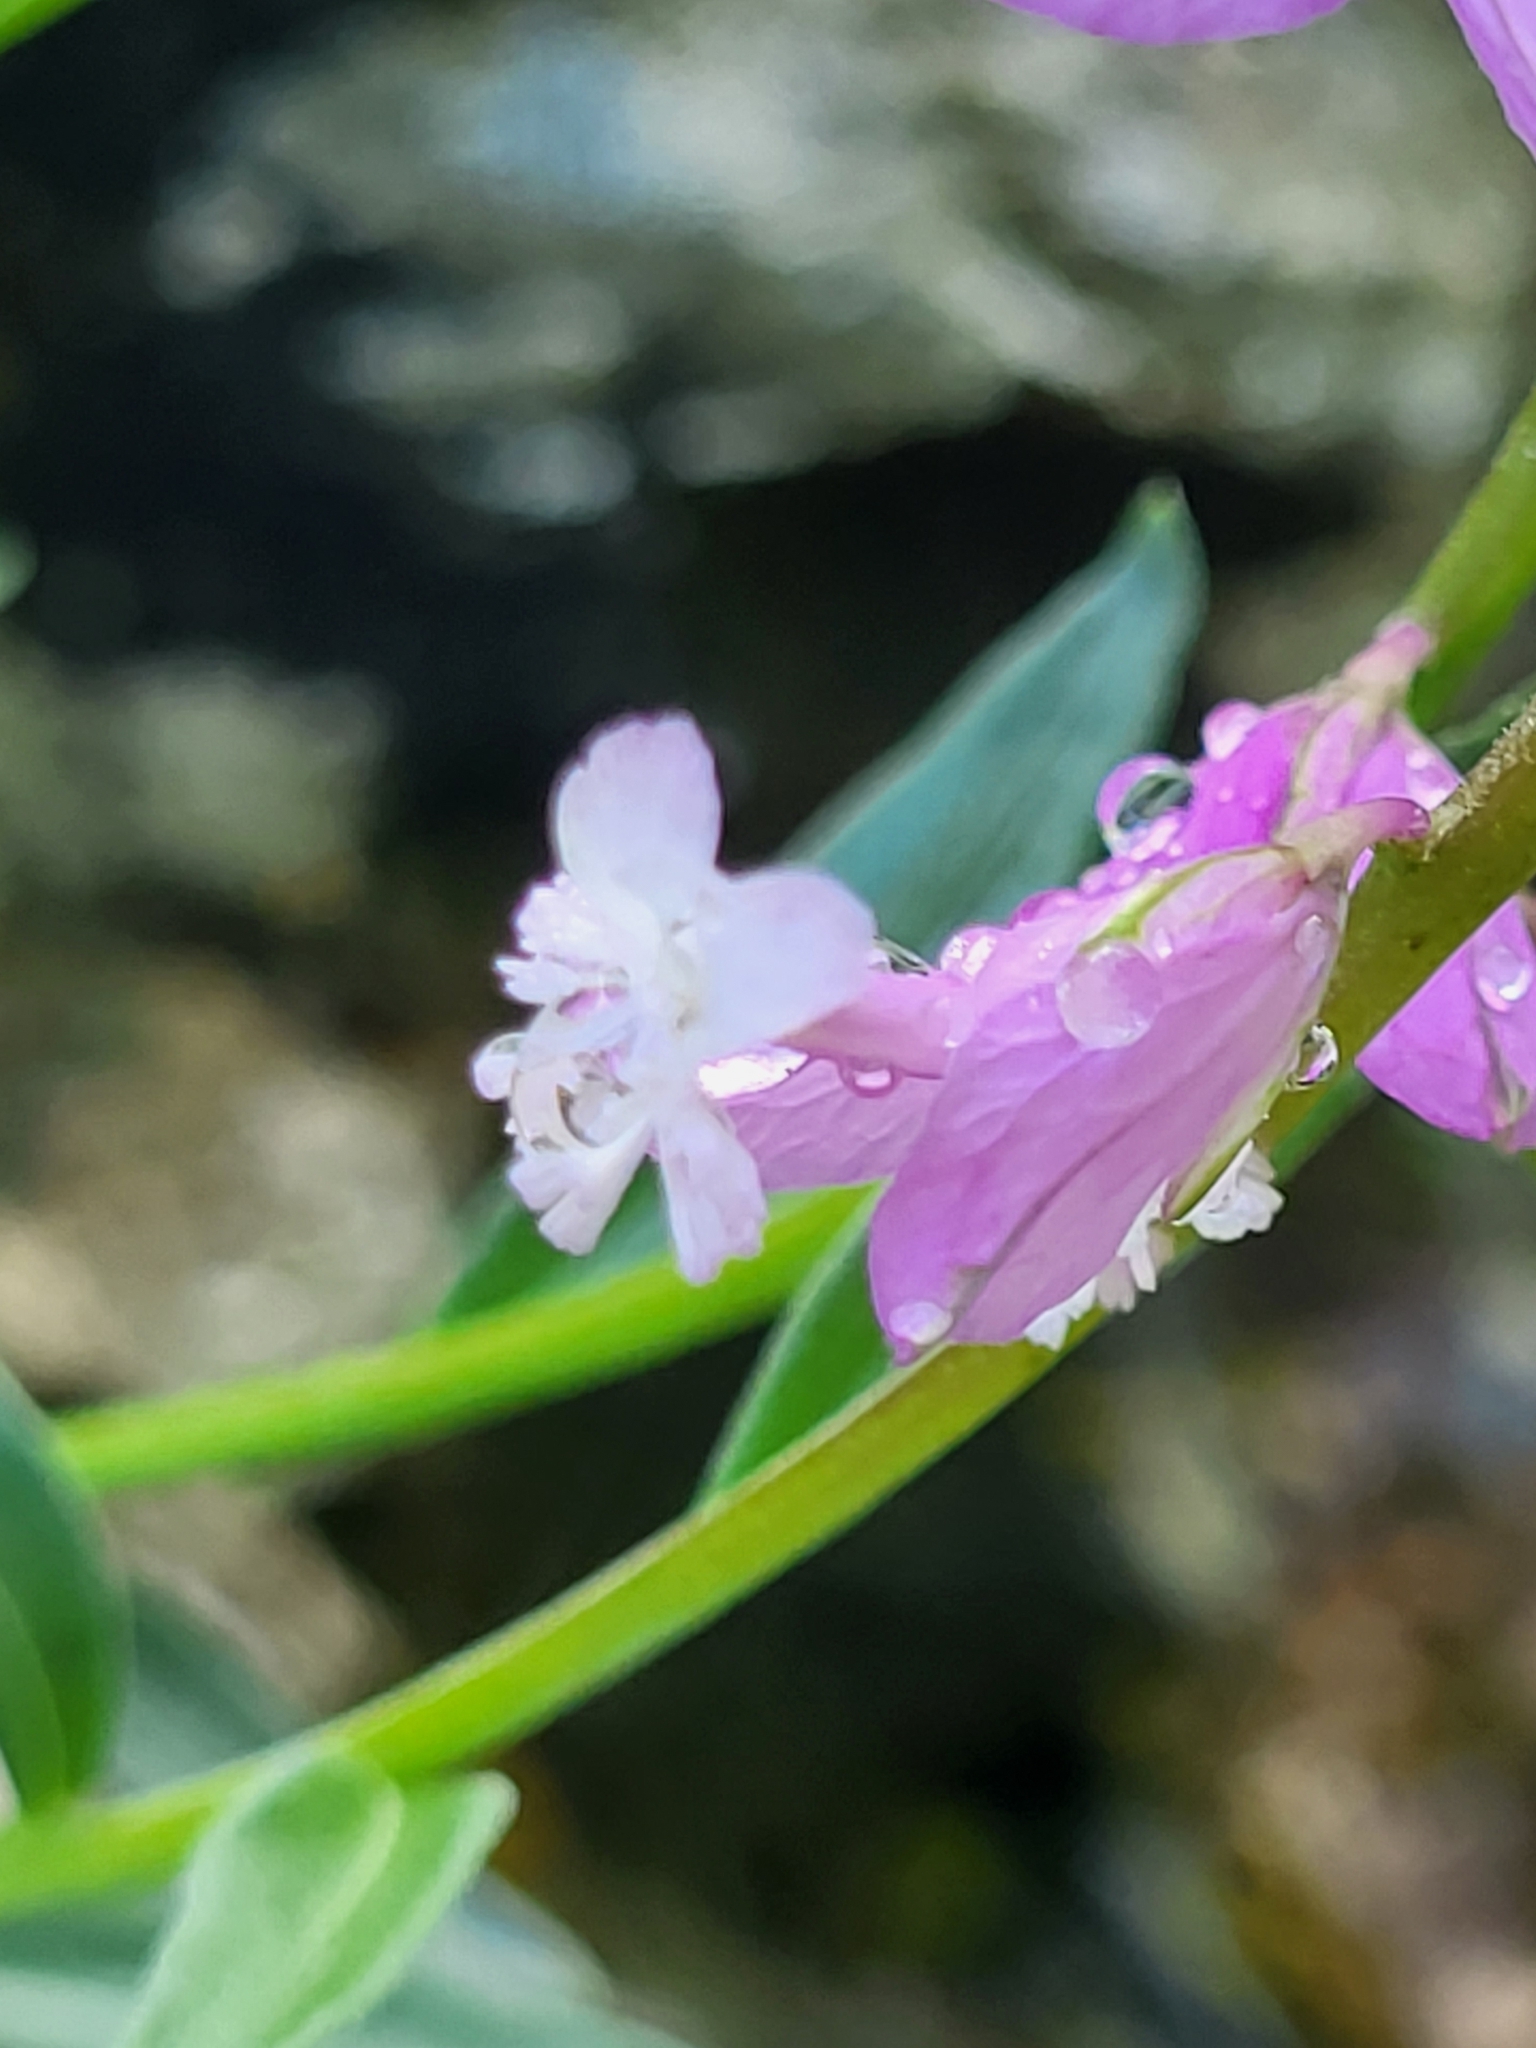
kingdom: Plantae
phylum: Tracheophyta
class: Magnoliopsida
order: Fabales
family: Polygalaceae
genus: Polygala
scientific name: Polygala major
